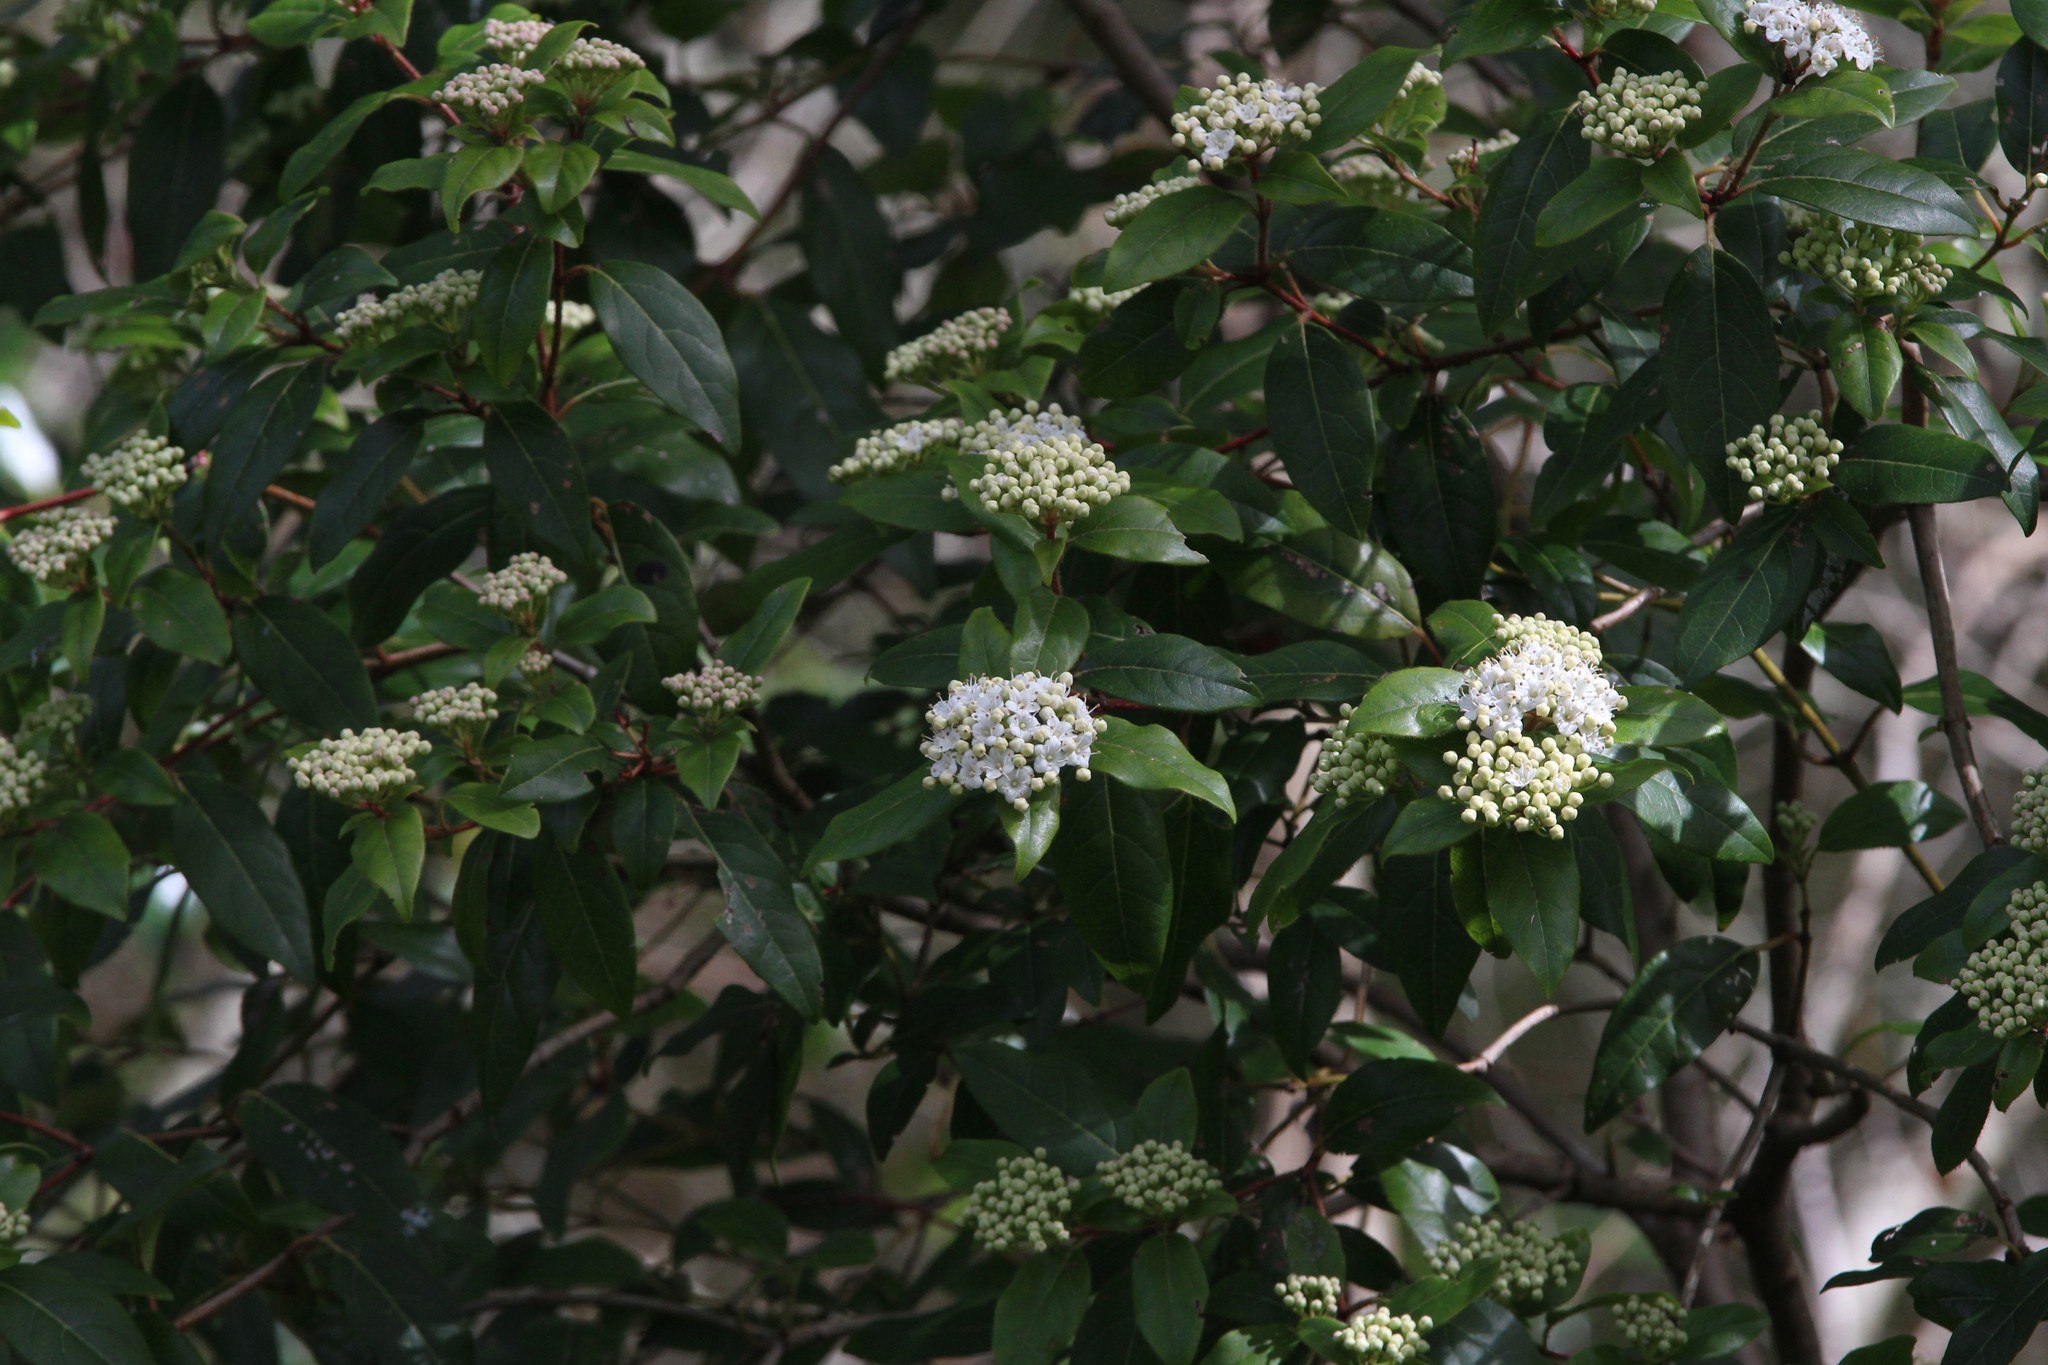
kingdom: Plantae
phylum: Tracheophyta
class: Magnoliopsida
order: Dipsacales
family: Viburnaceae
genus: Viburnum
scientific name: Viburnum tinus
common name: Laurustinus
